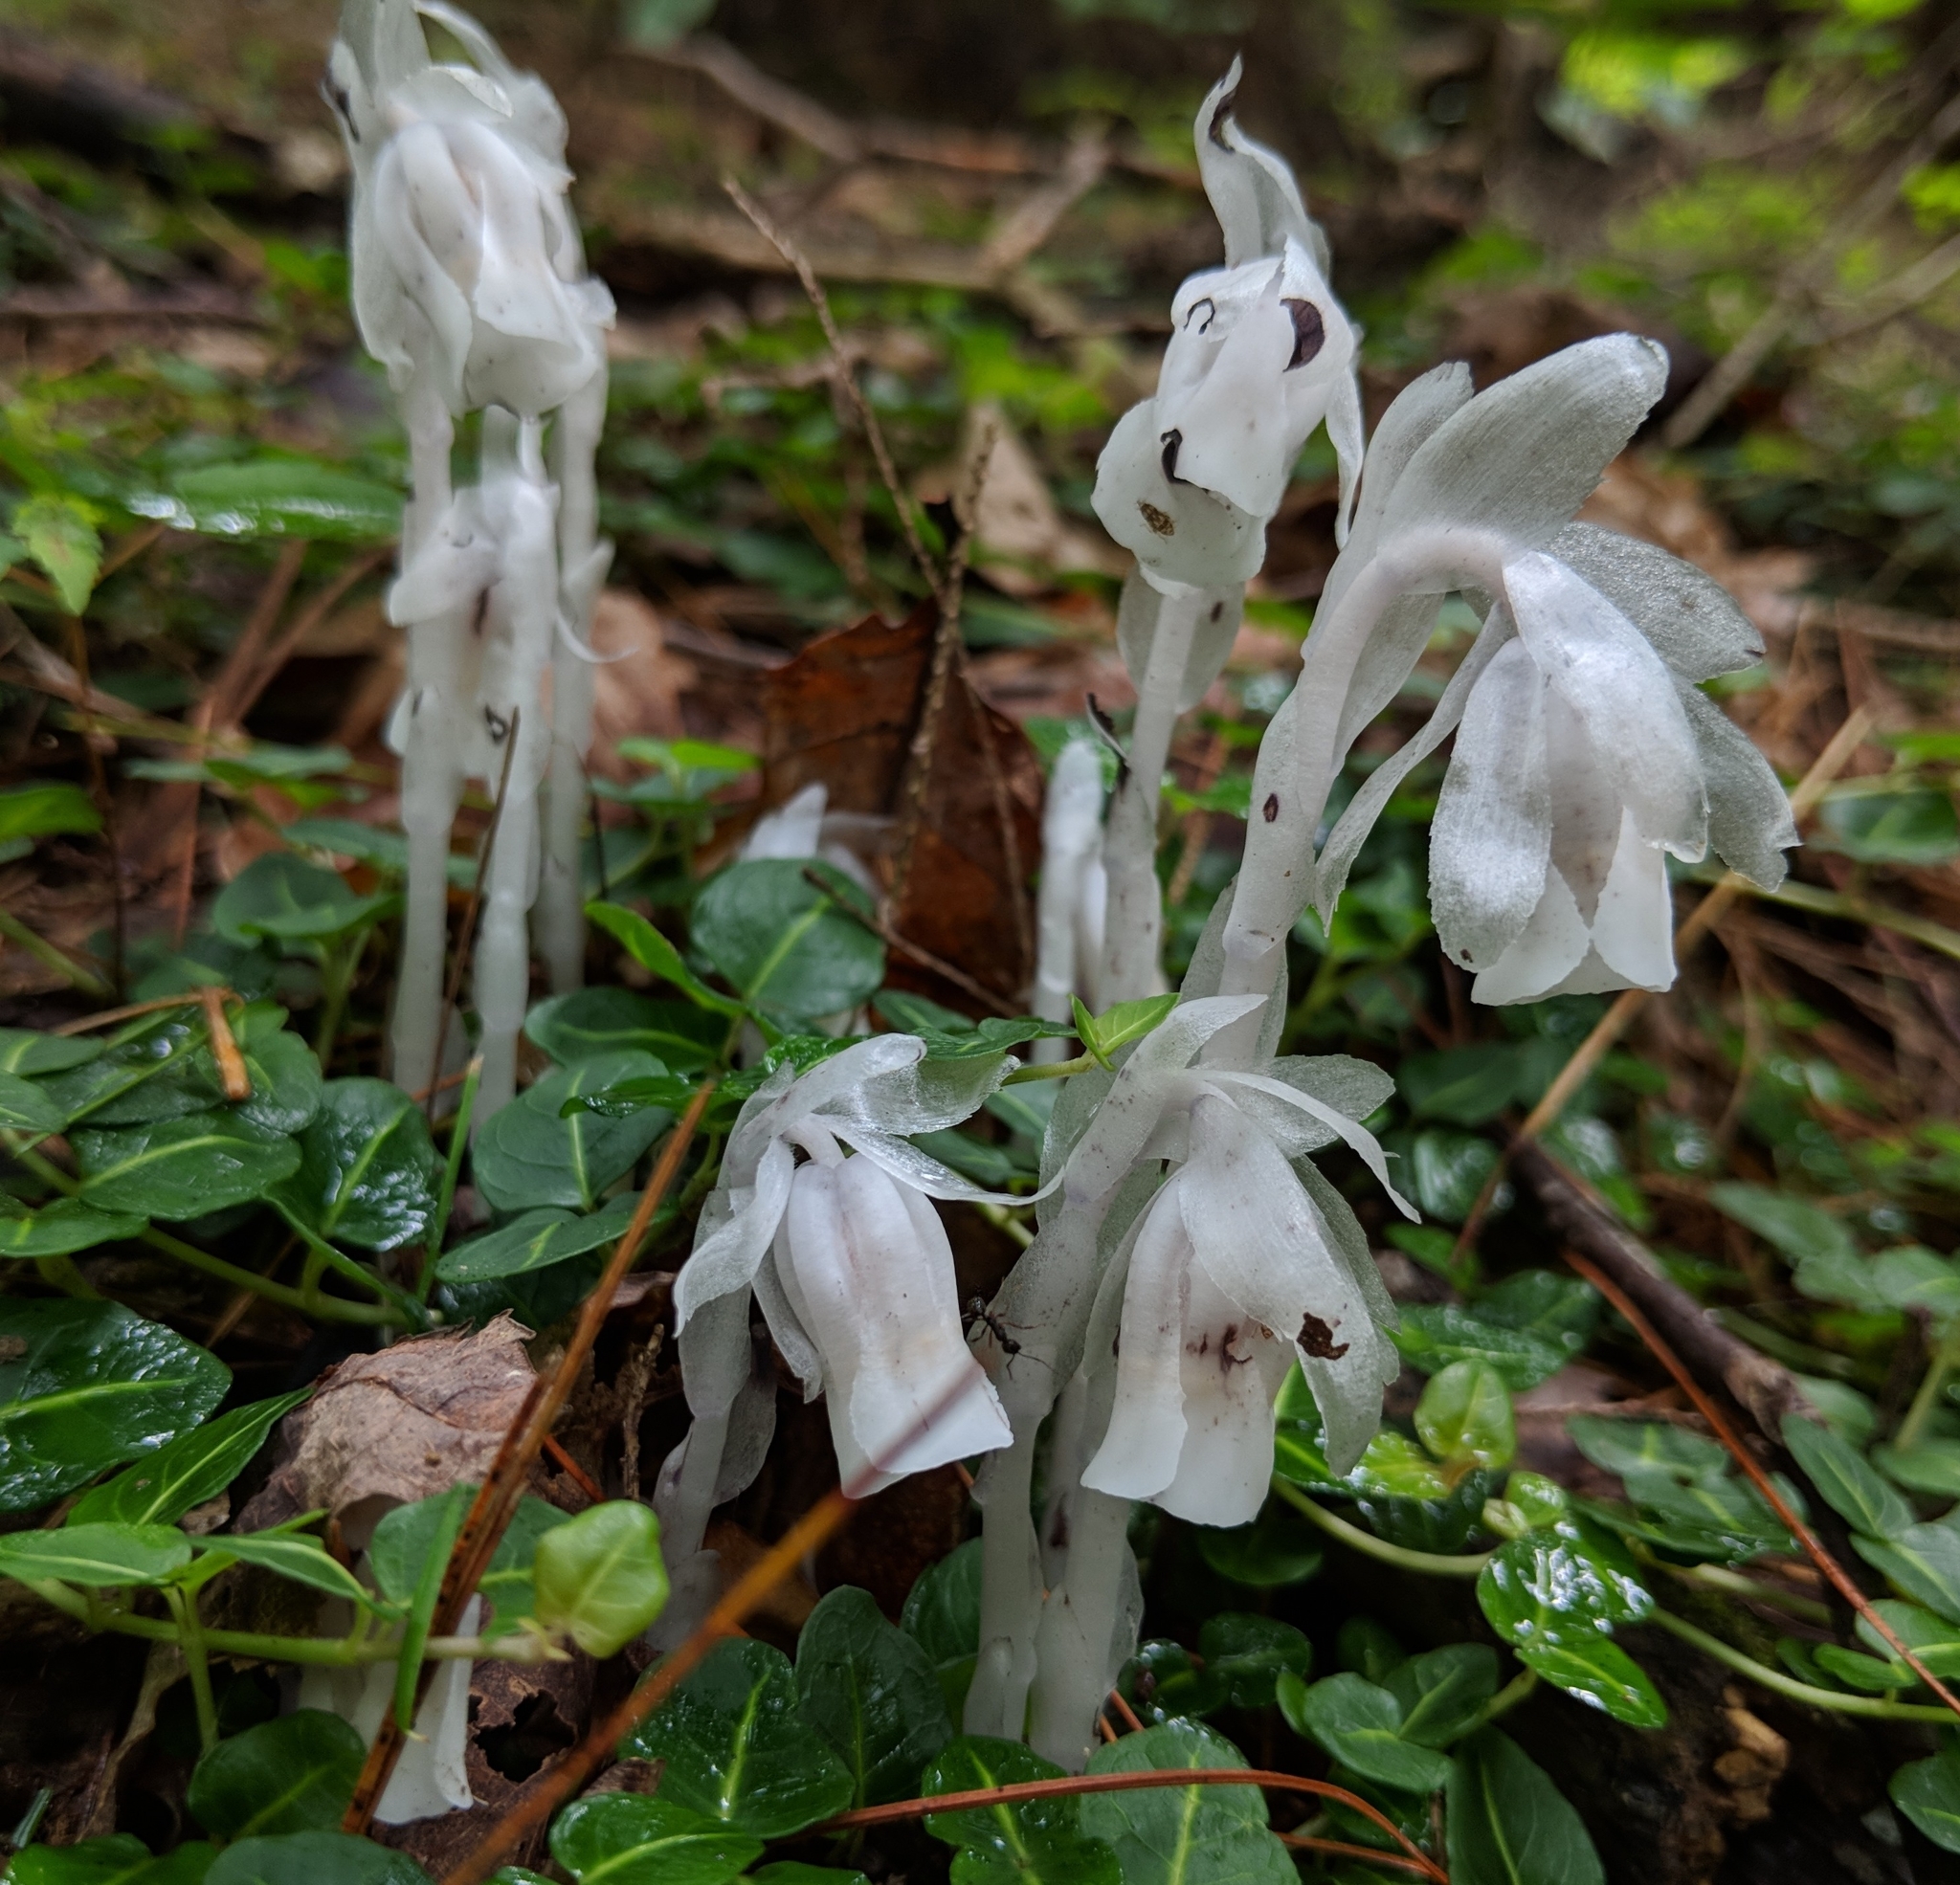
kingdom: Plantae
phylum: Tracheophyta
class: Magnoliopsida
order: Ericales
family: Ericaceae
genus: Monotropa
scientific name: Monotropa uniflora
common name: Convulsion root
